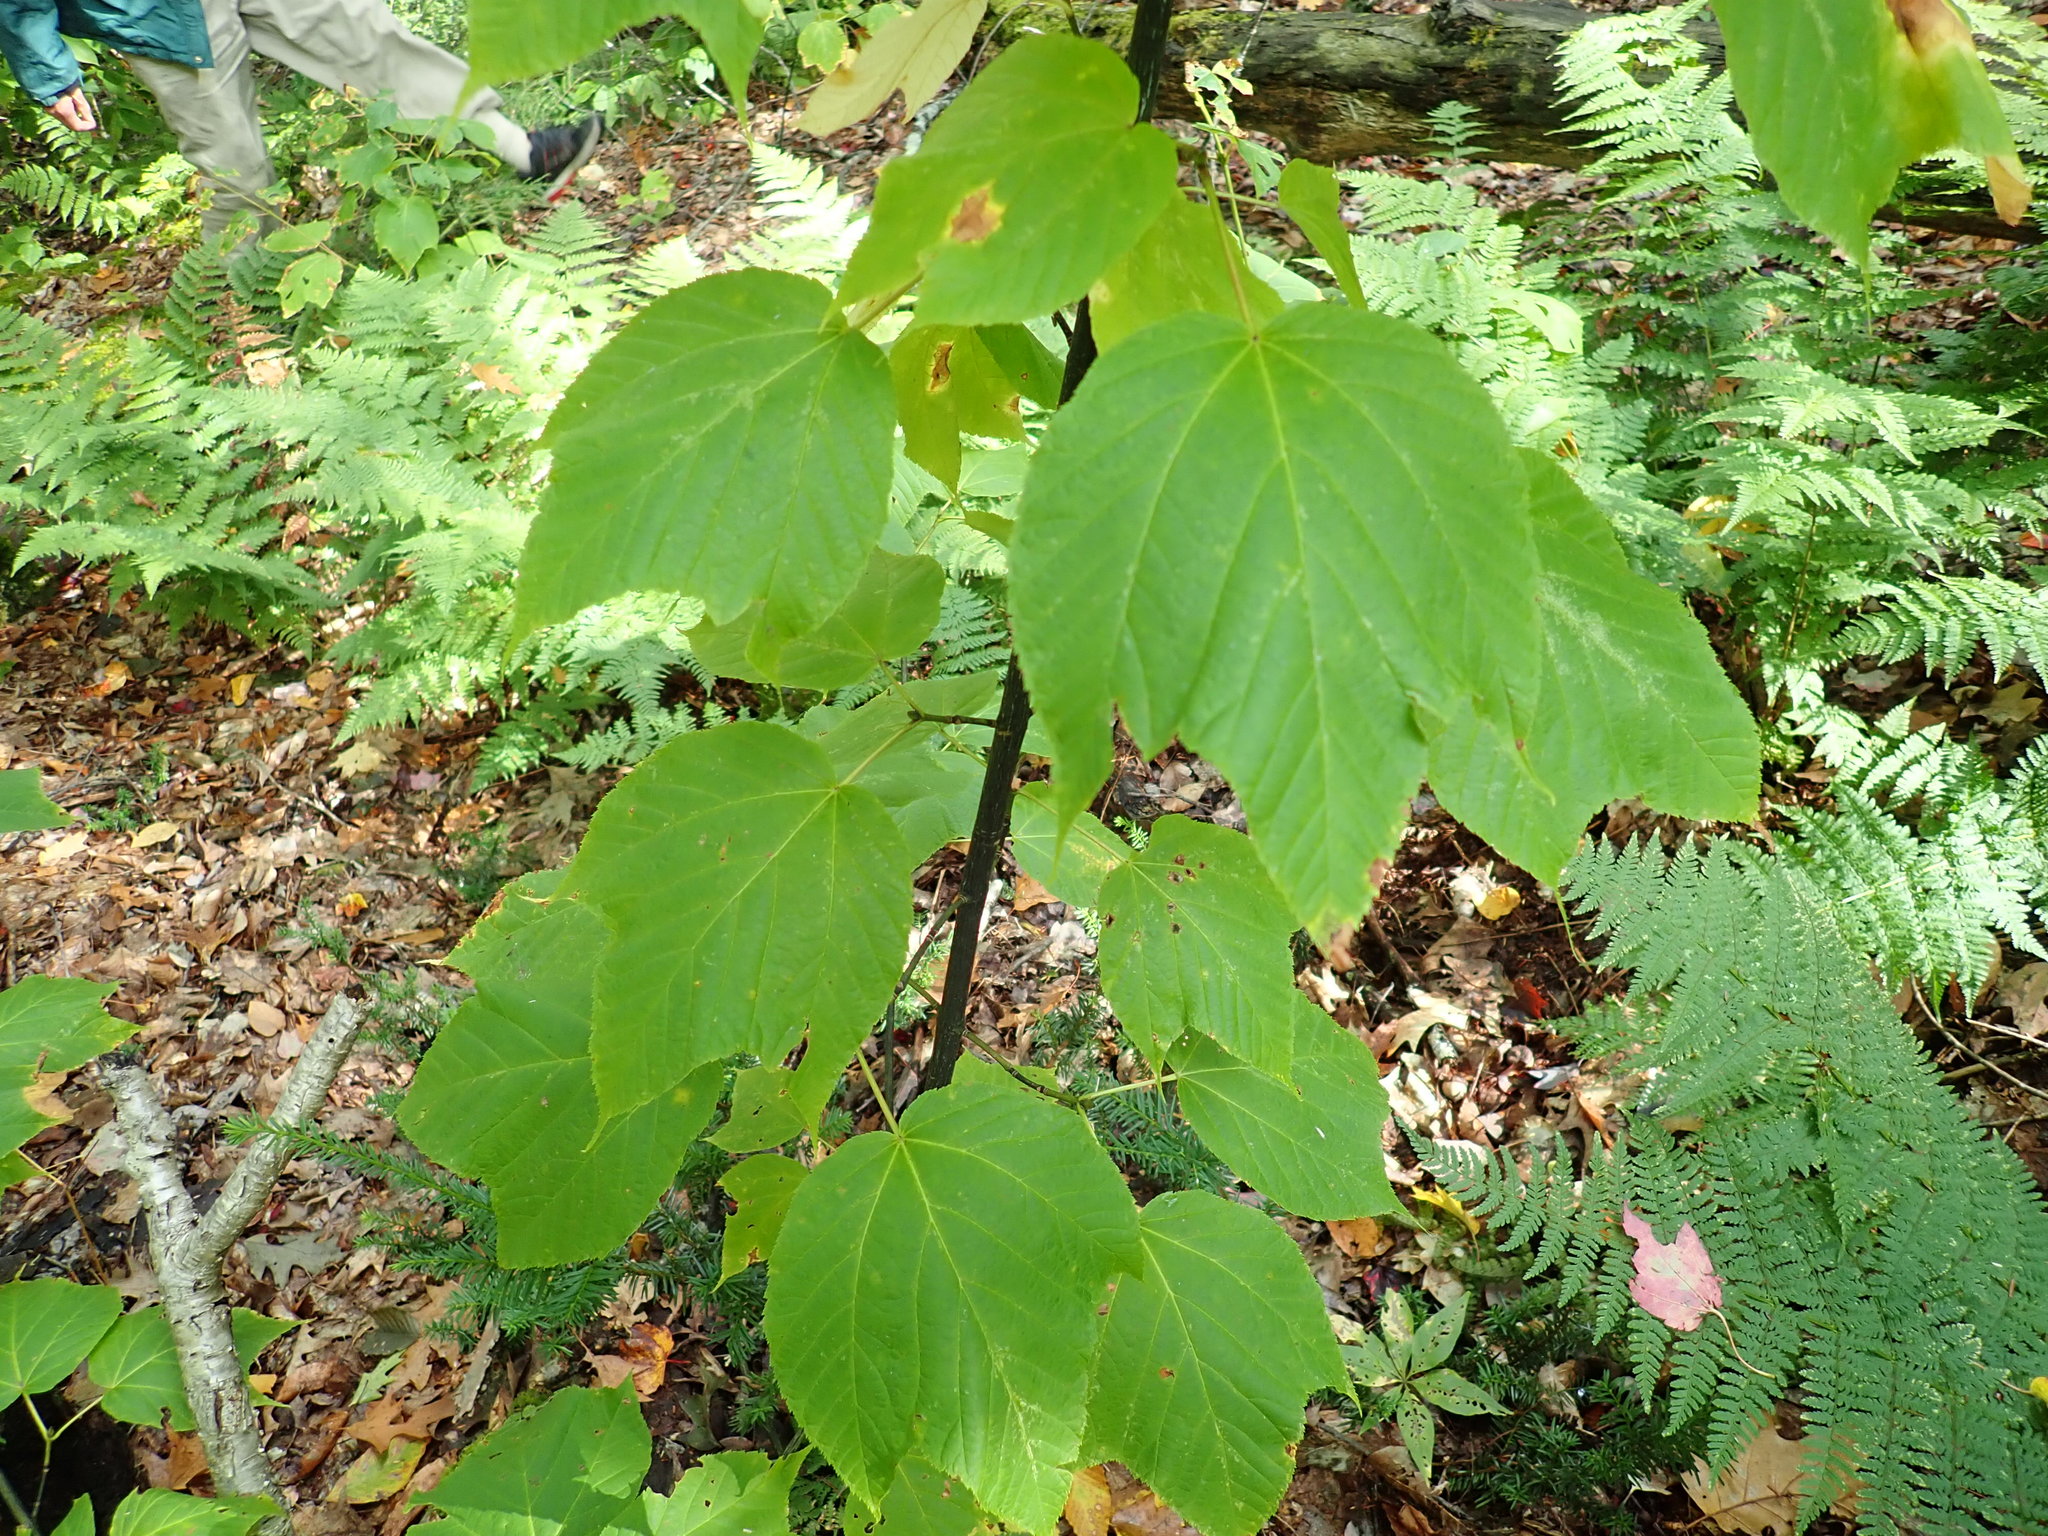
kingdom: Plantae
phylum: Tracheophyta
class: Magnoliopsida
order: Sapindales
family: Sapindaceae
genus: Acer
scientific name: Acer pensylvanicum
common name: Moosewood
